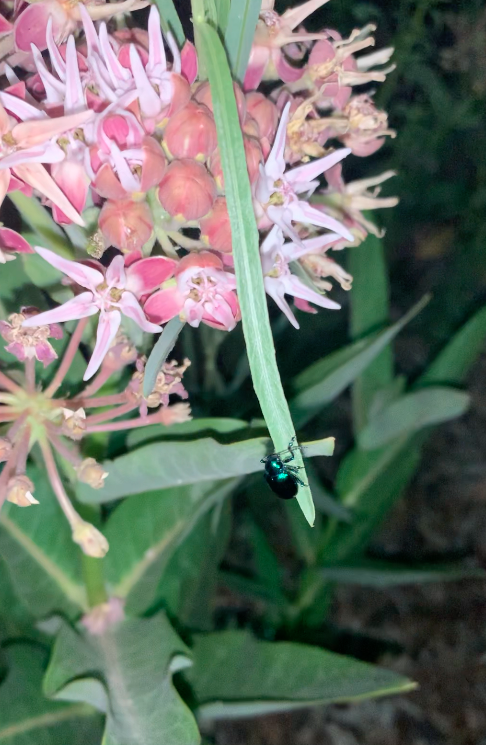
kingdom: Plantae
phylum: Tracheophyta
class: Magnoliopsida
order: Gentianales
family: Apocynaceae
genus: Asclepias
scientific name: Asclepias speciosa
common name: Showy milkweed
